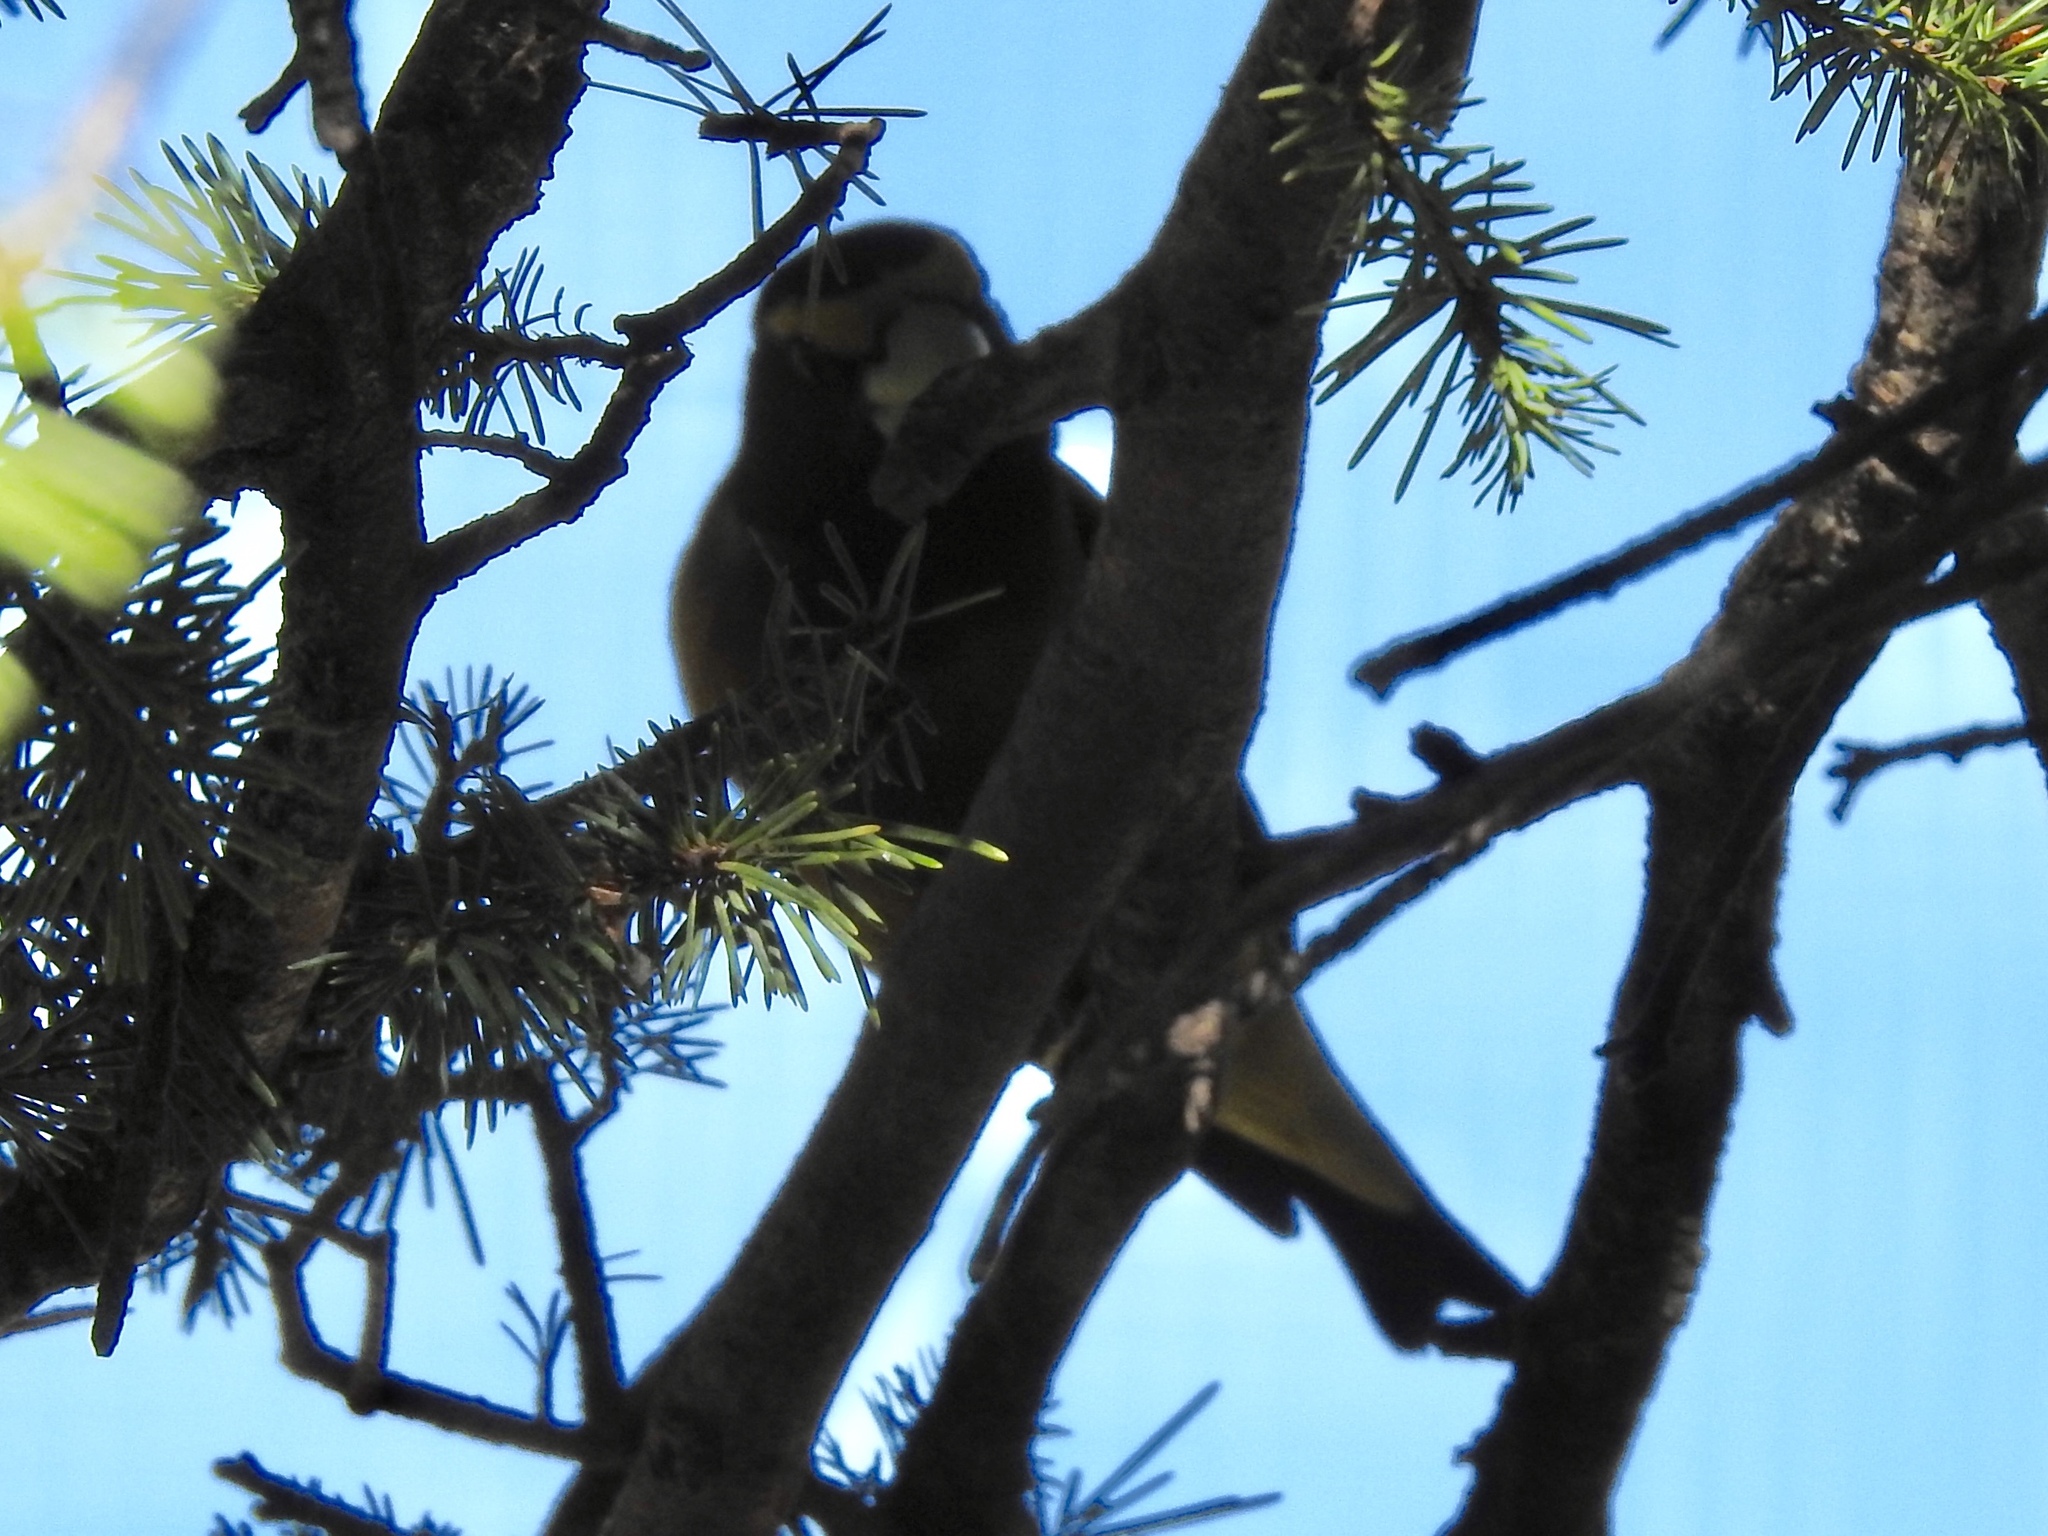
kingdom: Animalia
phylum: Chordata
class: Aves
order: Passeriformes
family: Fringillidae
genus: Hesperiphona
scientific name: Hesperiphona vespertina
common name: Evening grosbeak
